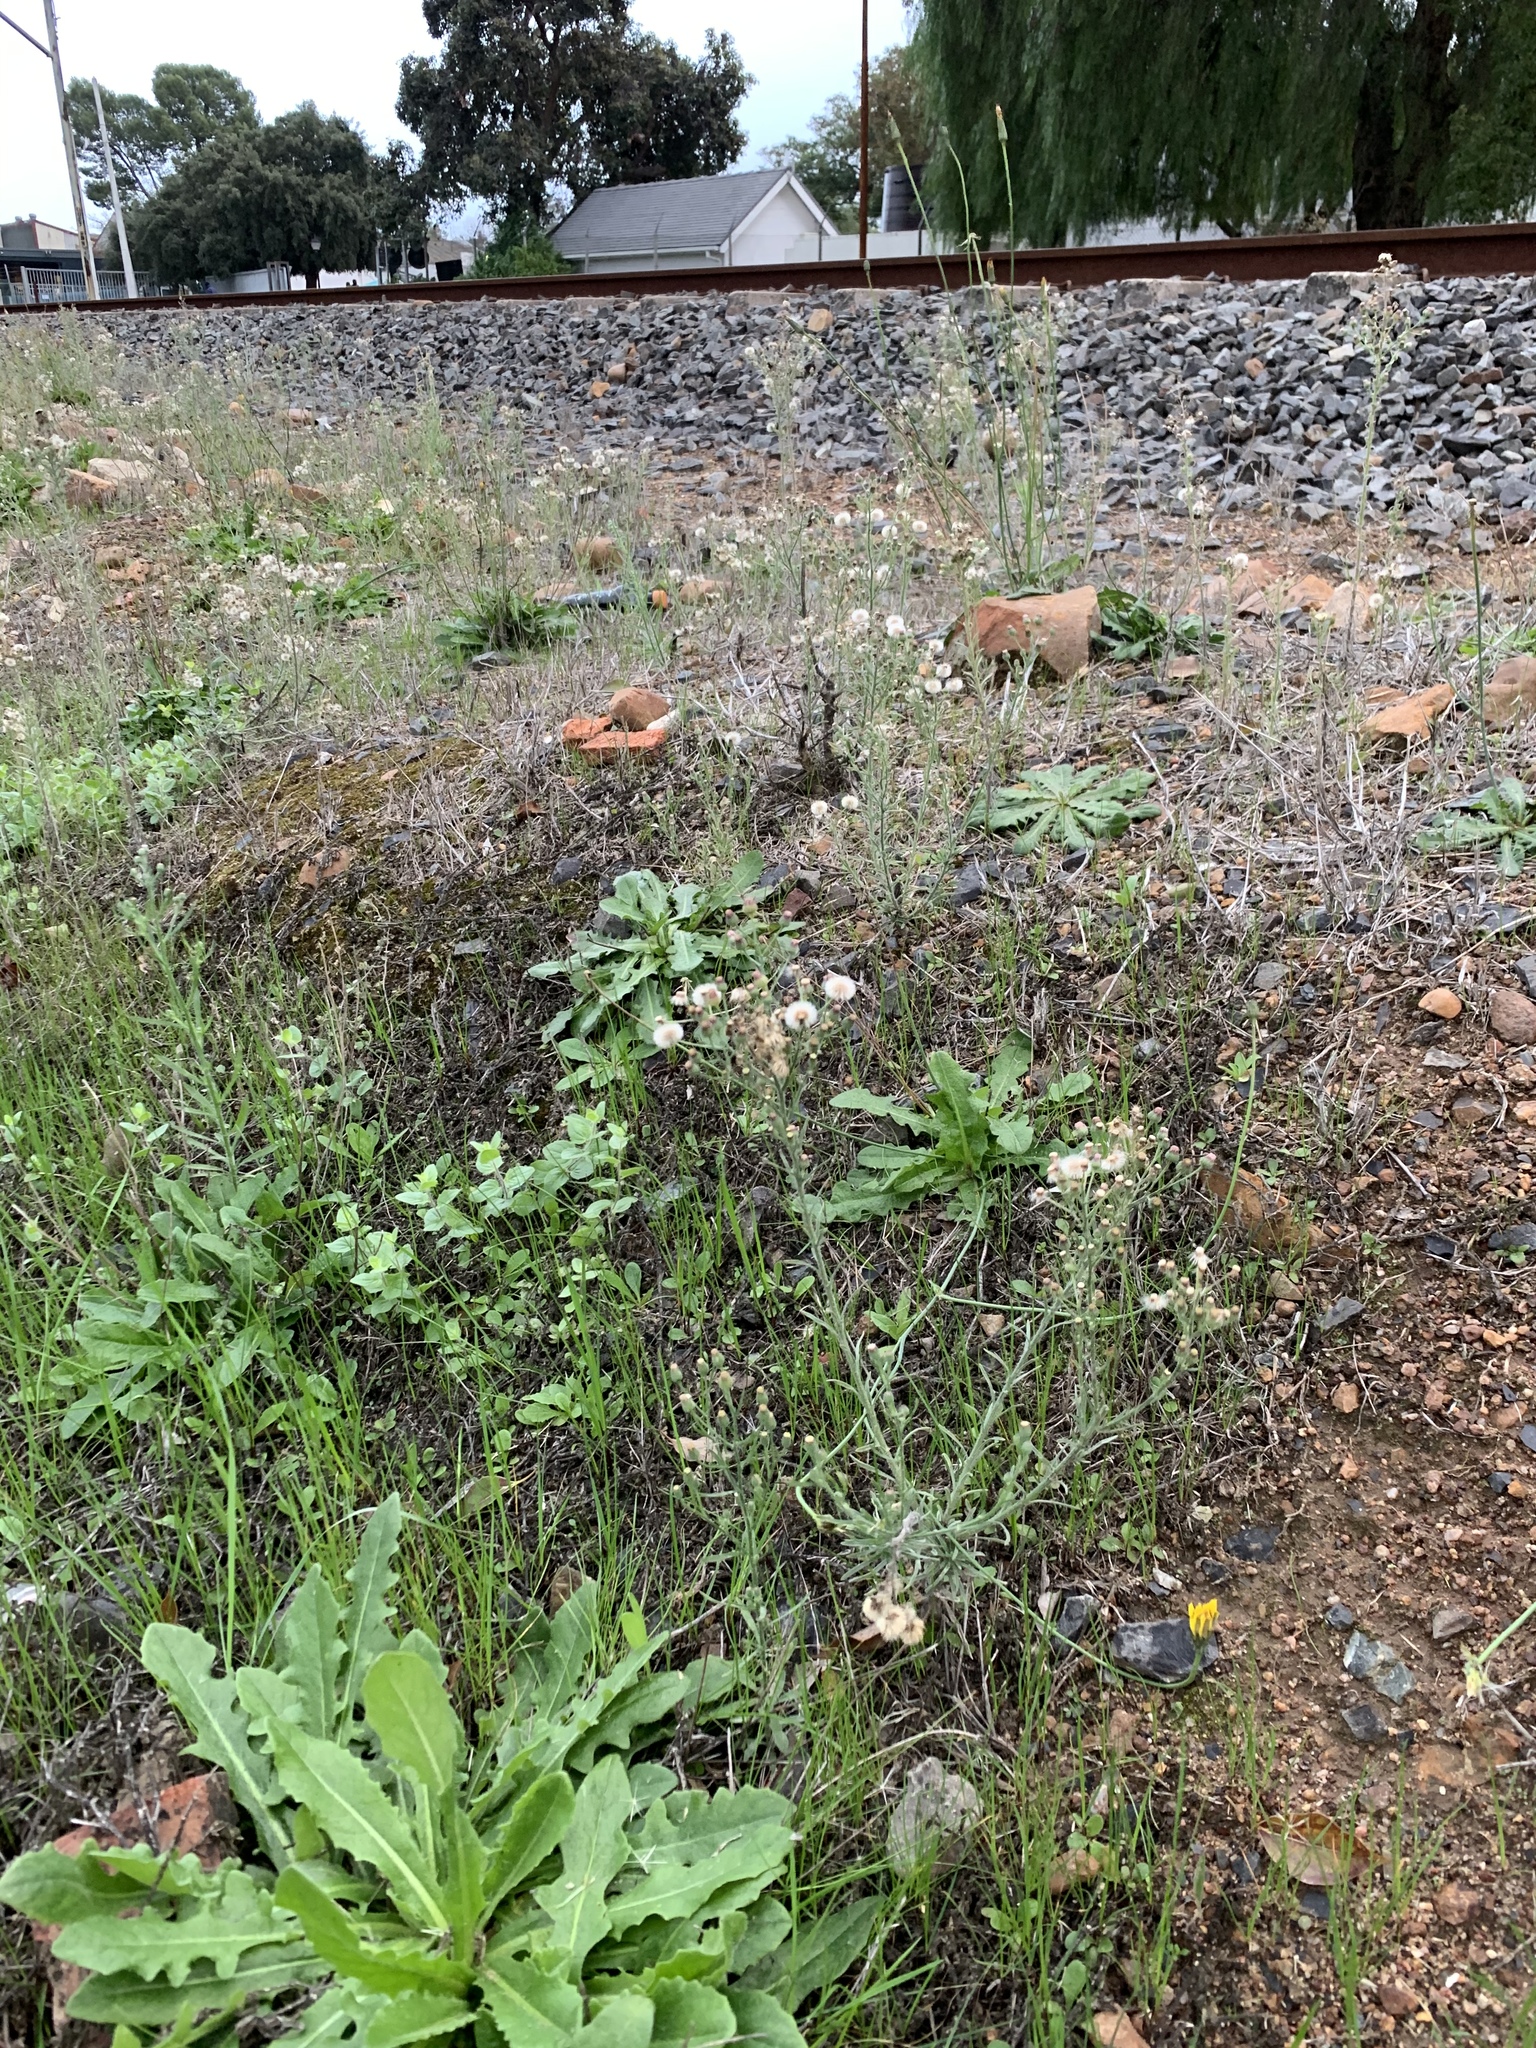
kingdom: Plantae
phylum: Tracheophyta
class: Magnoliopsida
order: Asterales
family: Asteraceae
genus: Erigeron
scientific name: Erigeron bonariensis
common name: Argentine fleabane
